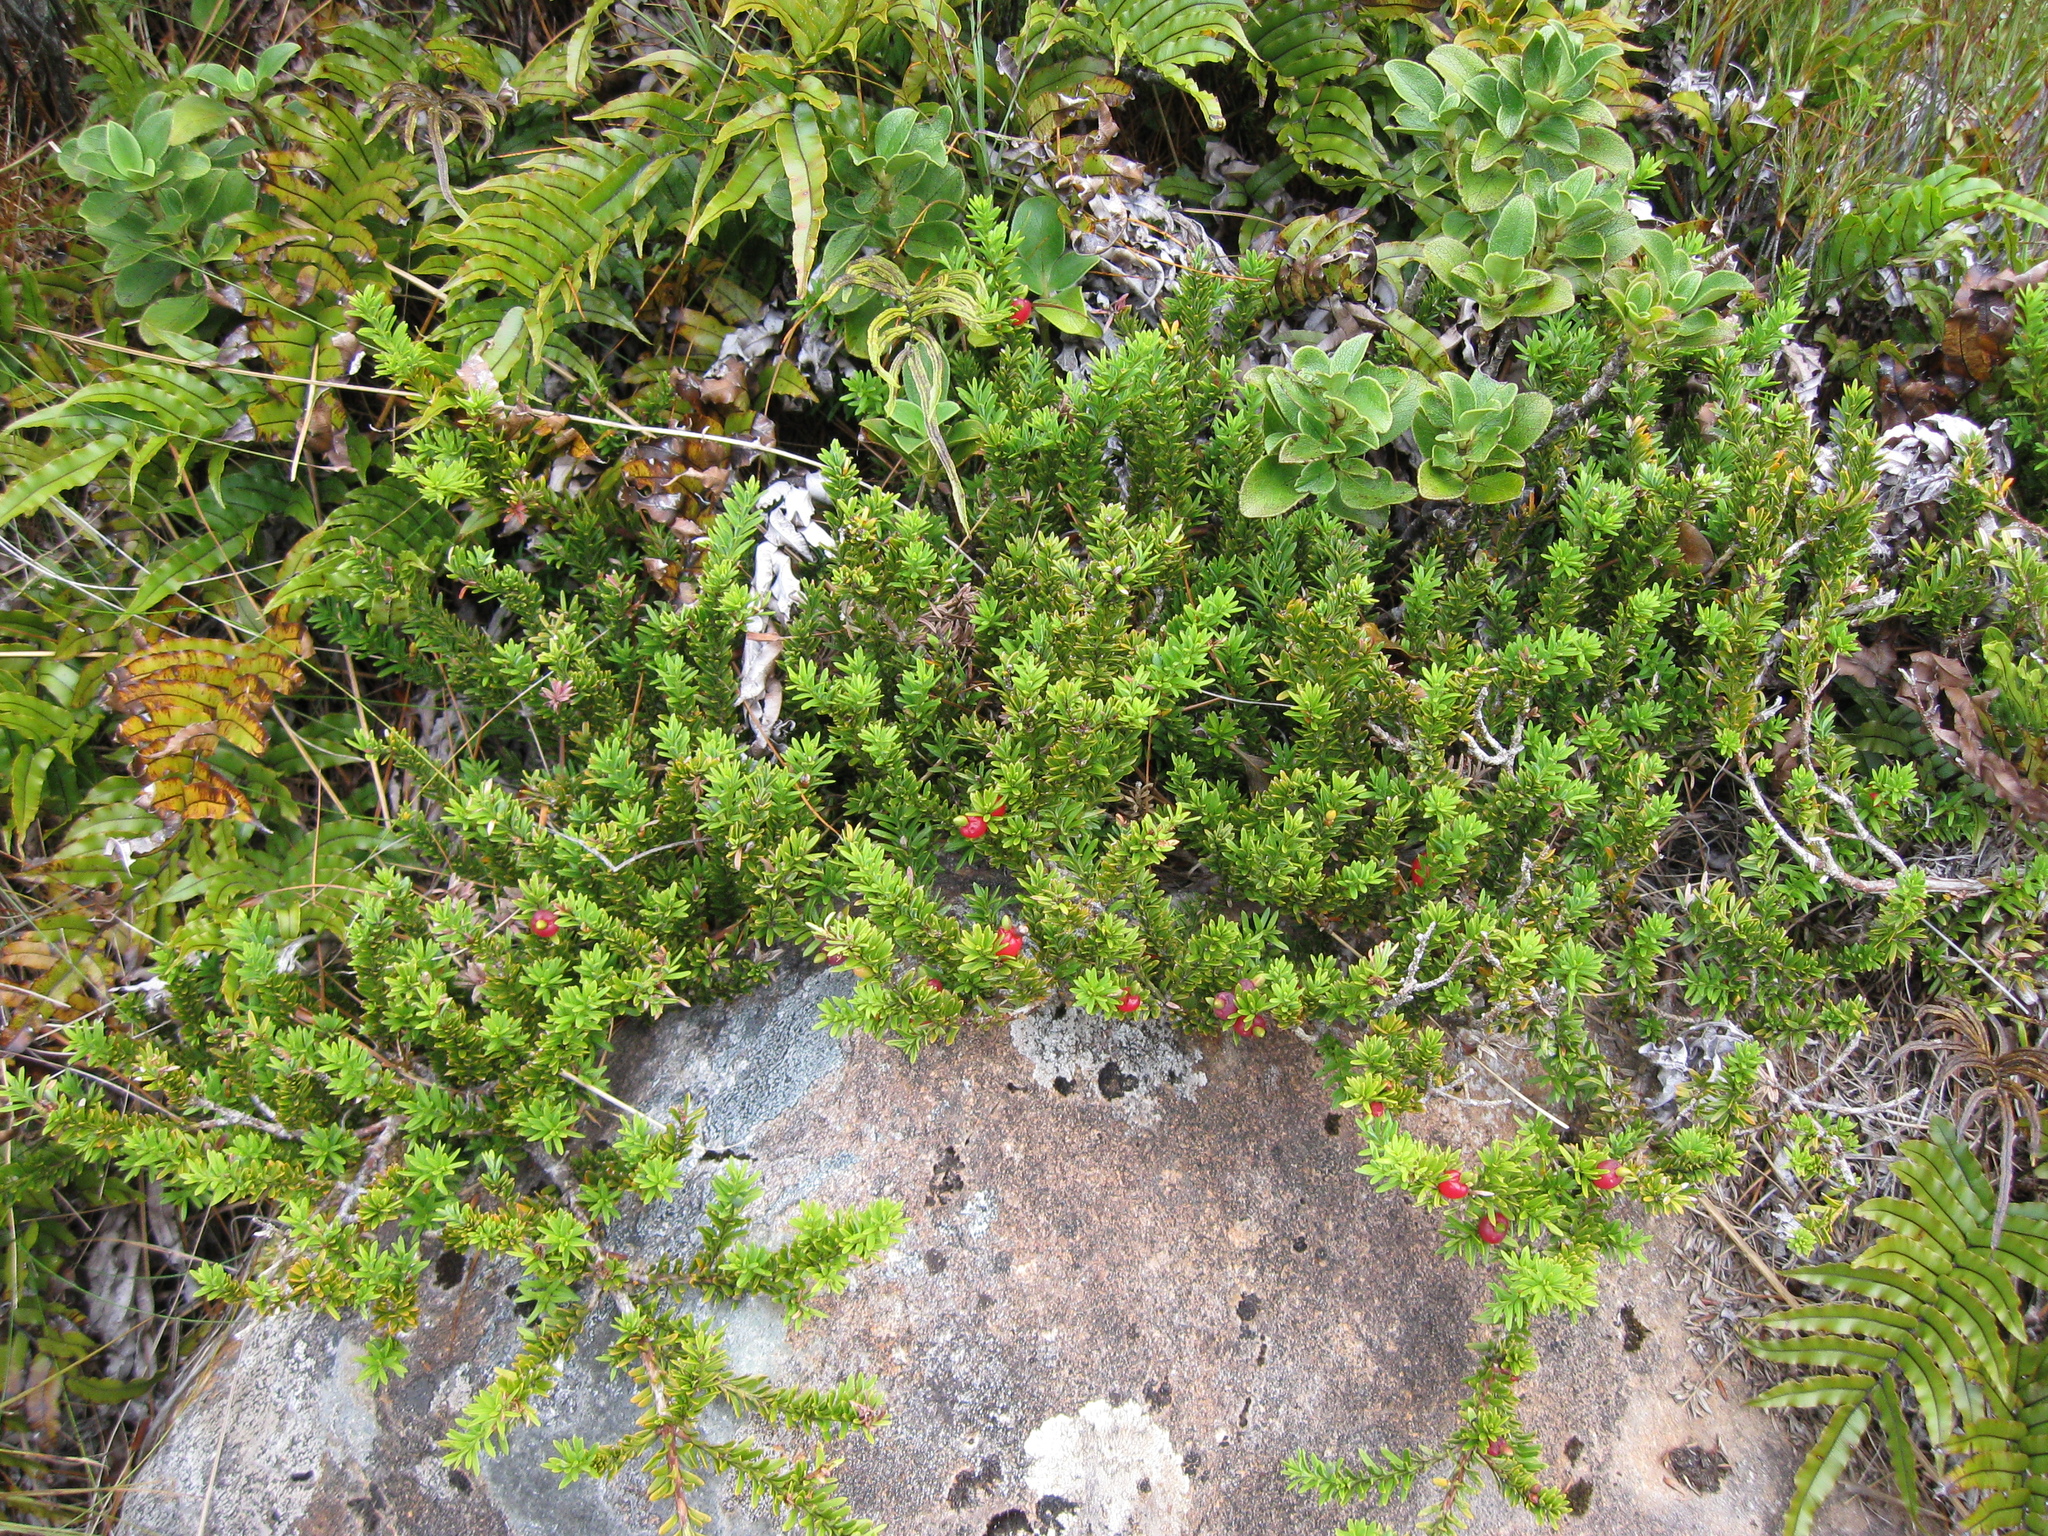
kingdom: Plantae
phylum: Tracheophyta
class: Pinopsida
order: Pinales
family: Podocarpaceae
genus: Podocarpus
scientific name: Podocarpus nivalis
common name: Alpine totara
